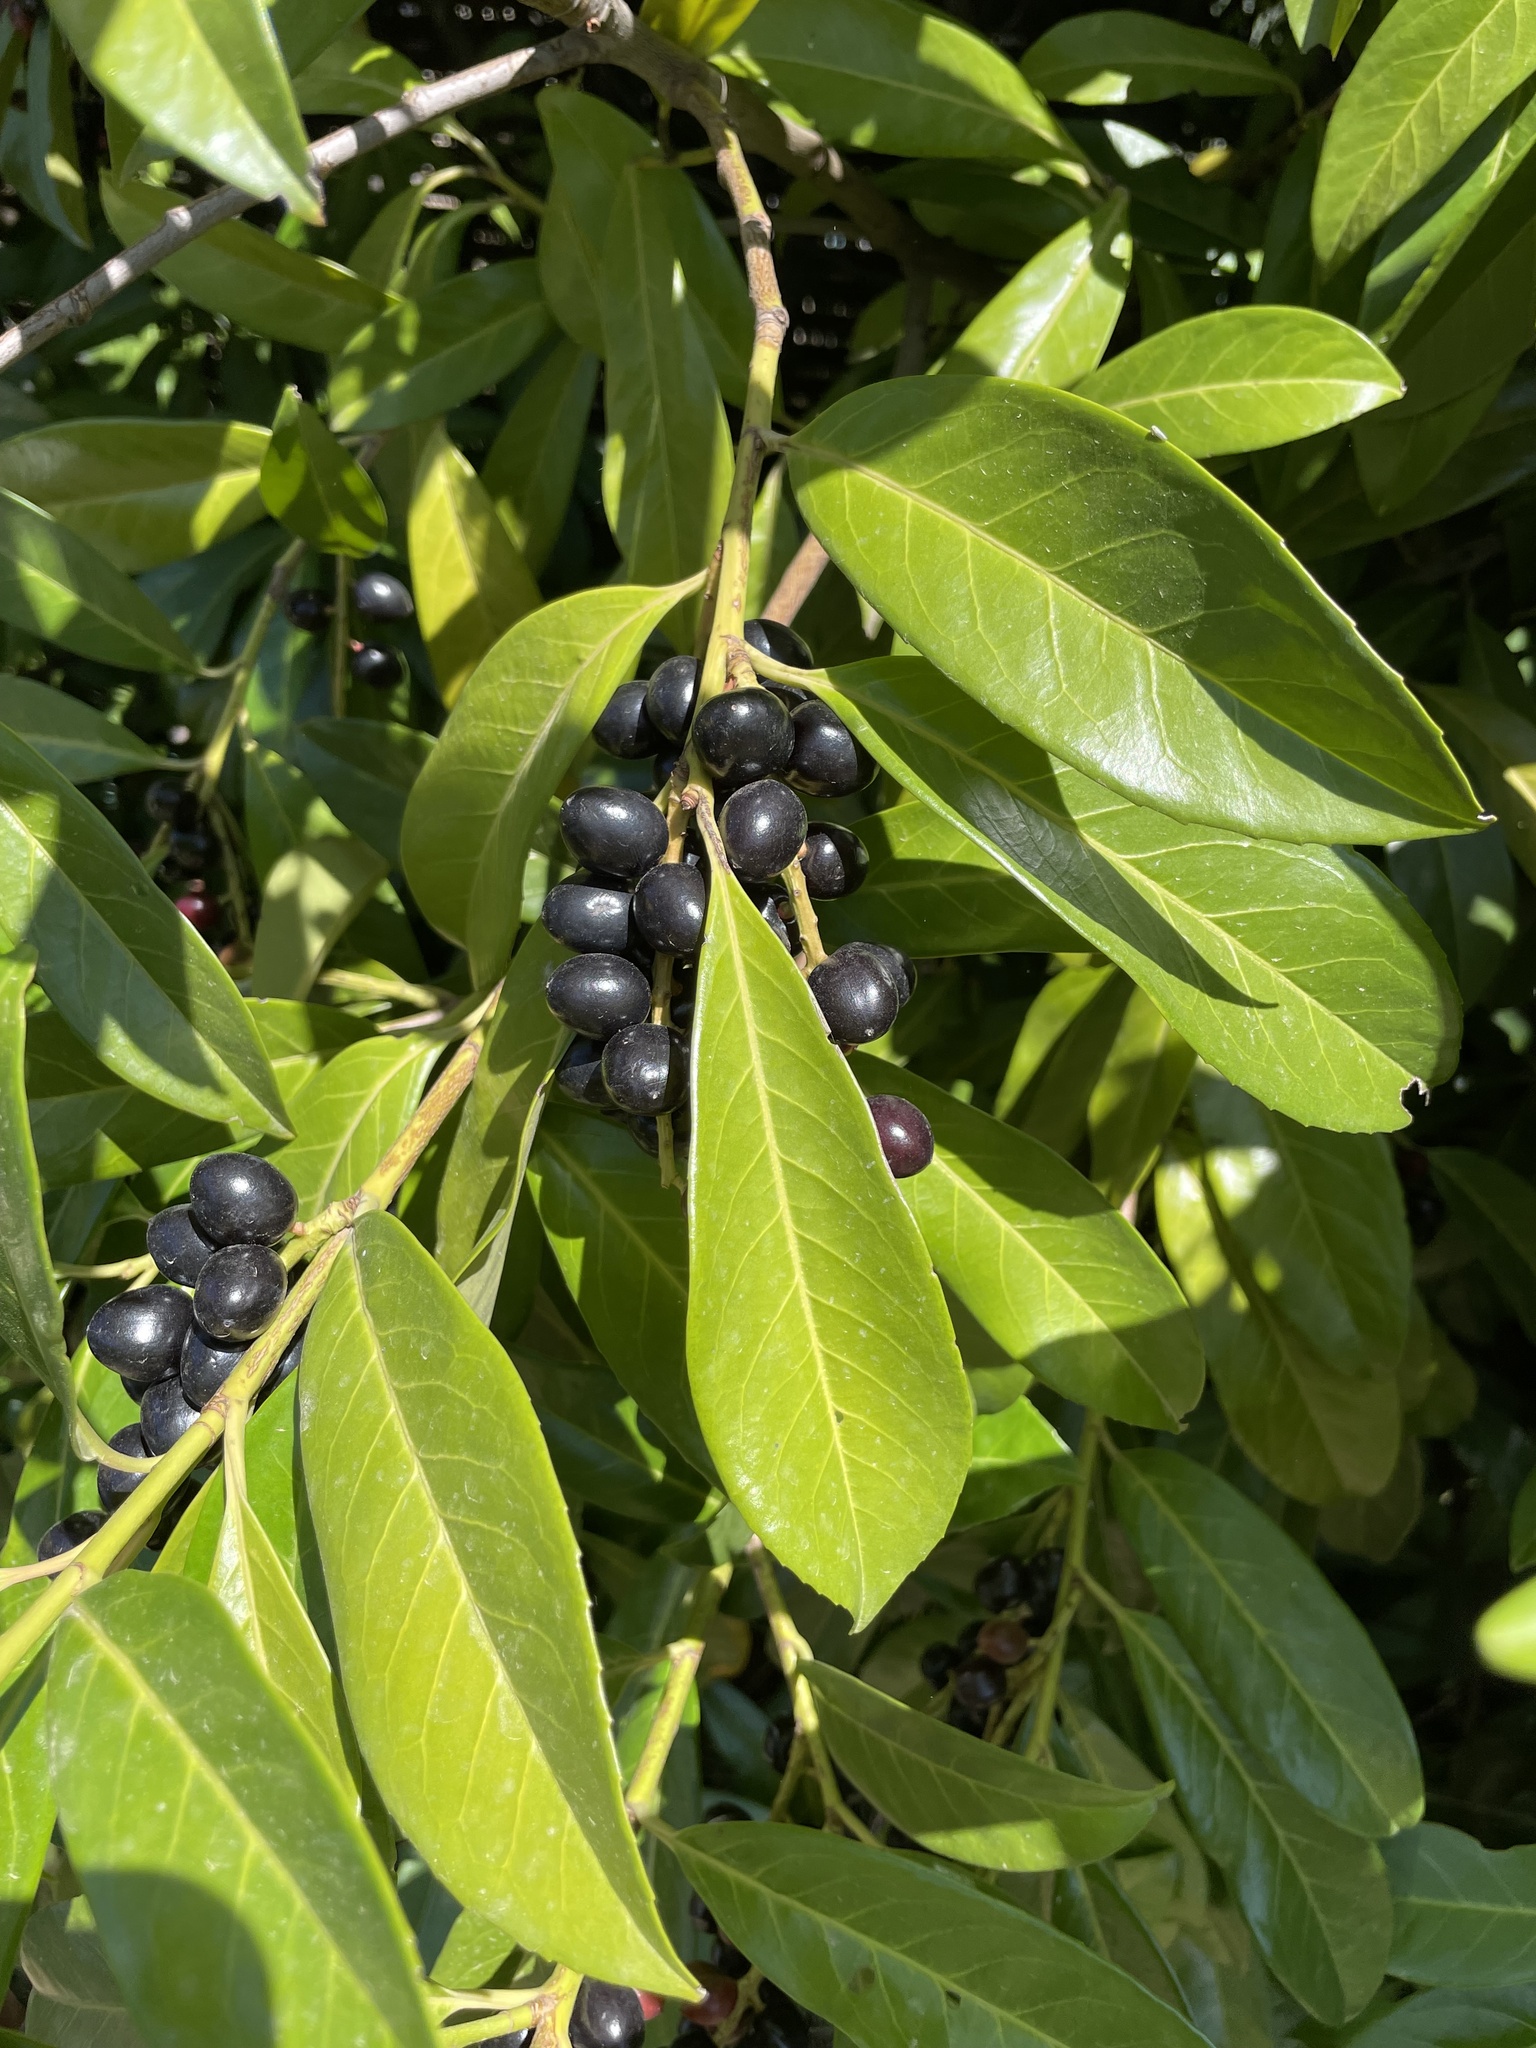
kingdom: Plantae
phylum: Tracheophyta
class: Magnoliopsida
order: Rosales
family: Rosaceae
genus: Prunus
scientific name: Prunus laurocerasus
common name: Cherry laurel
